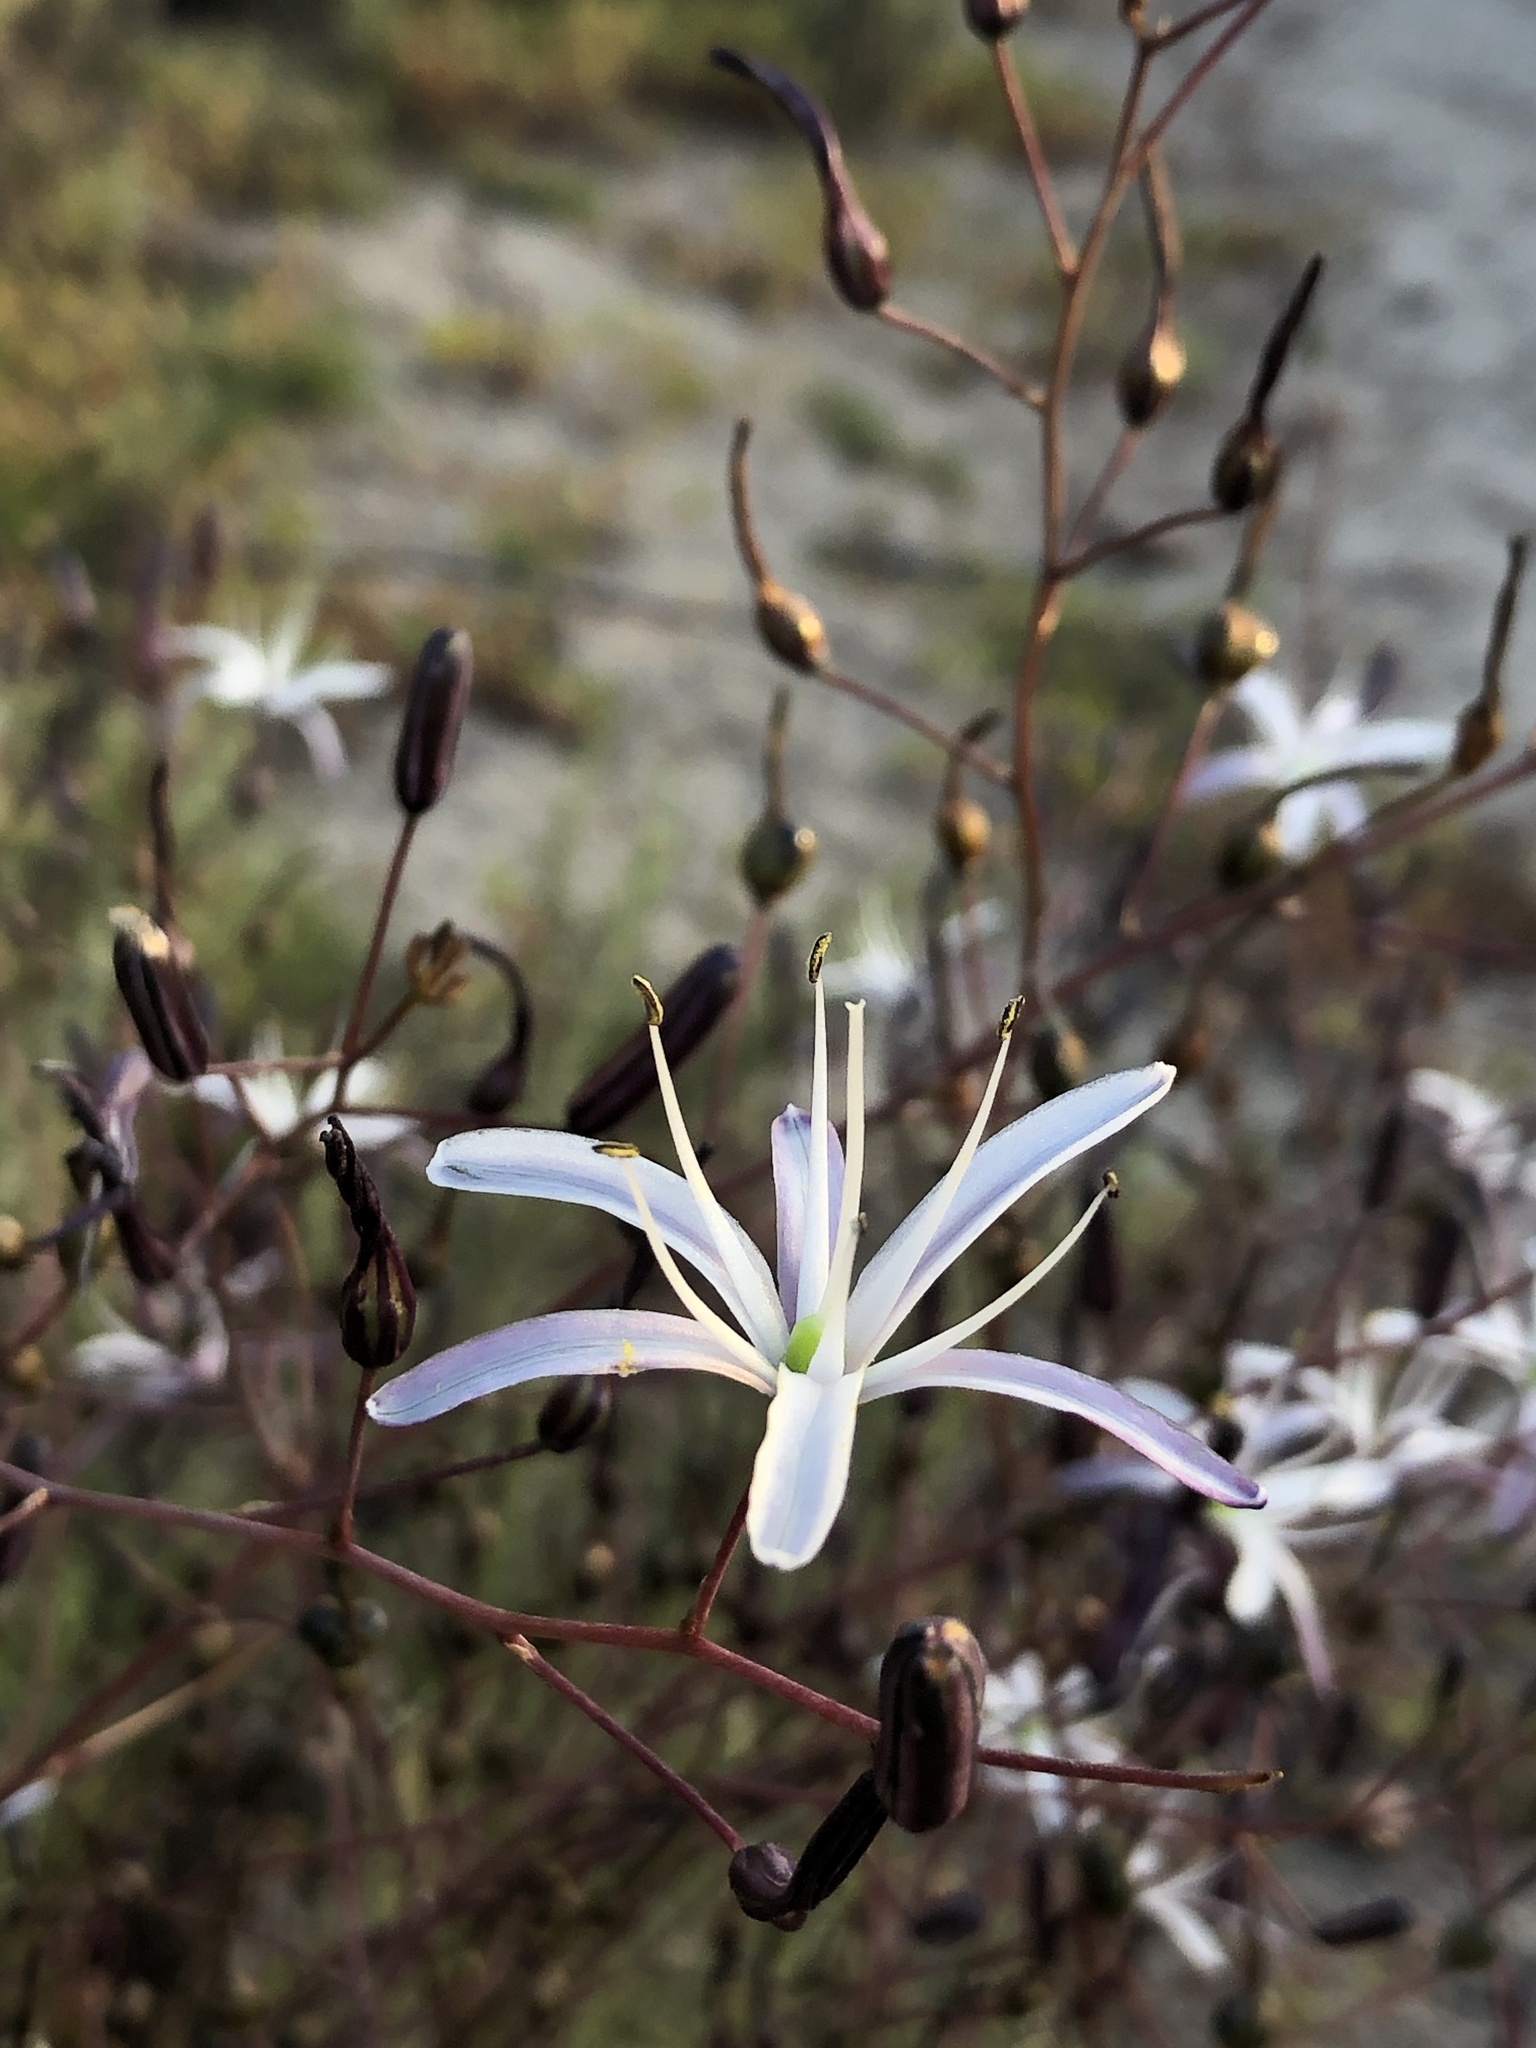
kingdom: Plantae
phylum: Tracheophyta
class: Liliopsida
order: Asparagales
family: Asparagaceae
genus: Chlorogalum
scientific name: Chlorogalum pomeridianum
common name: Amole
